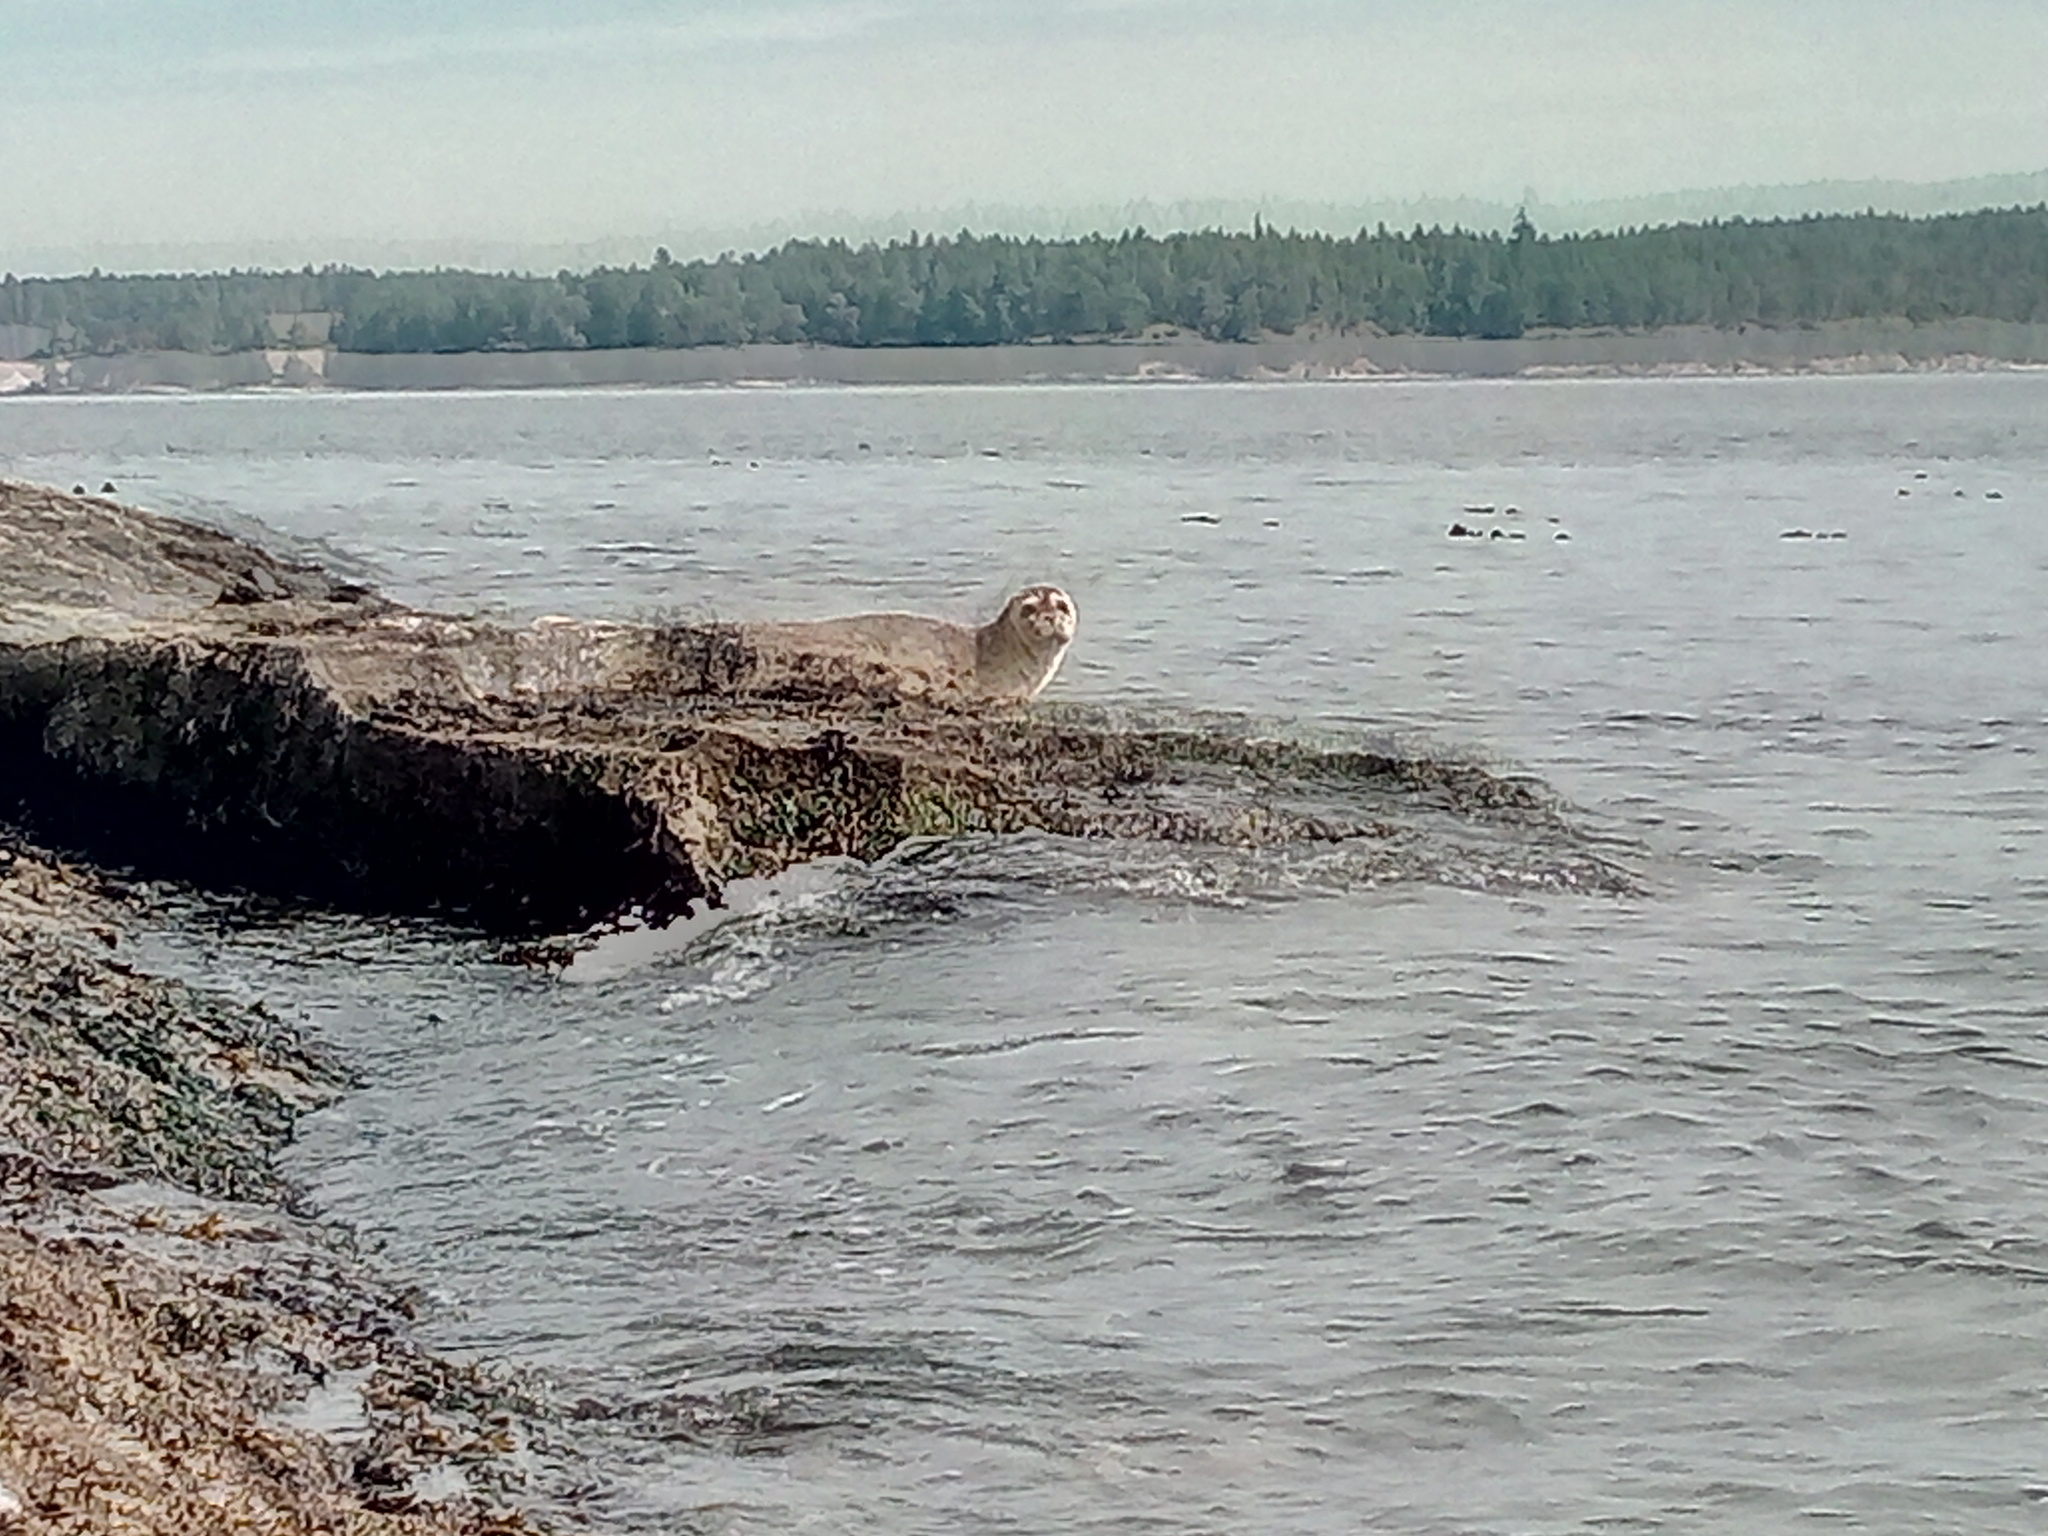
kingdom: Animalia
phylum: Chordata
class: Mammalia
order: Carnivora
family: Phocidae
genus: Phoca
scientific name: Phoca vitulina
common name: Harbor seal
